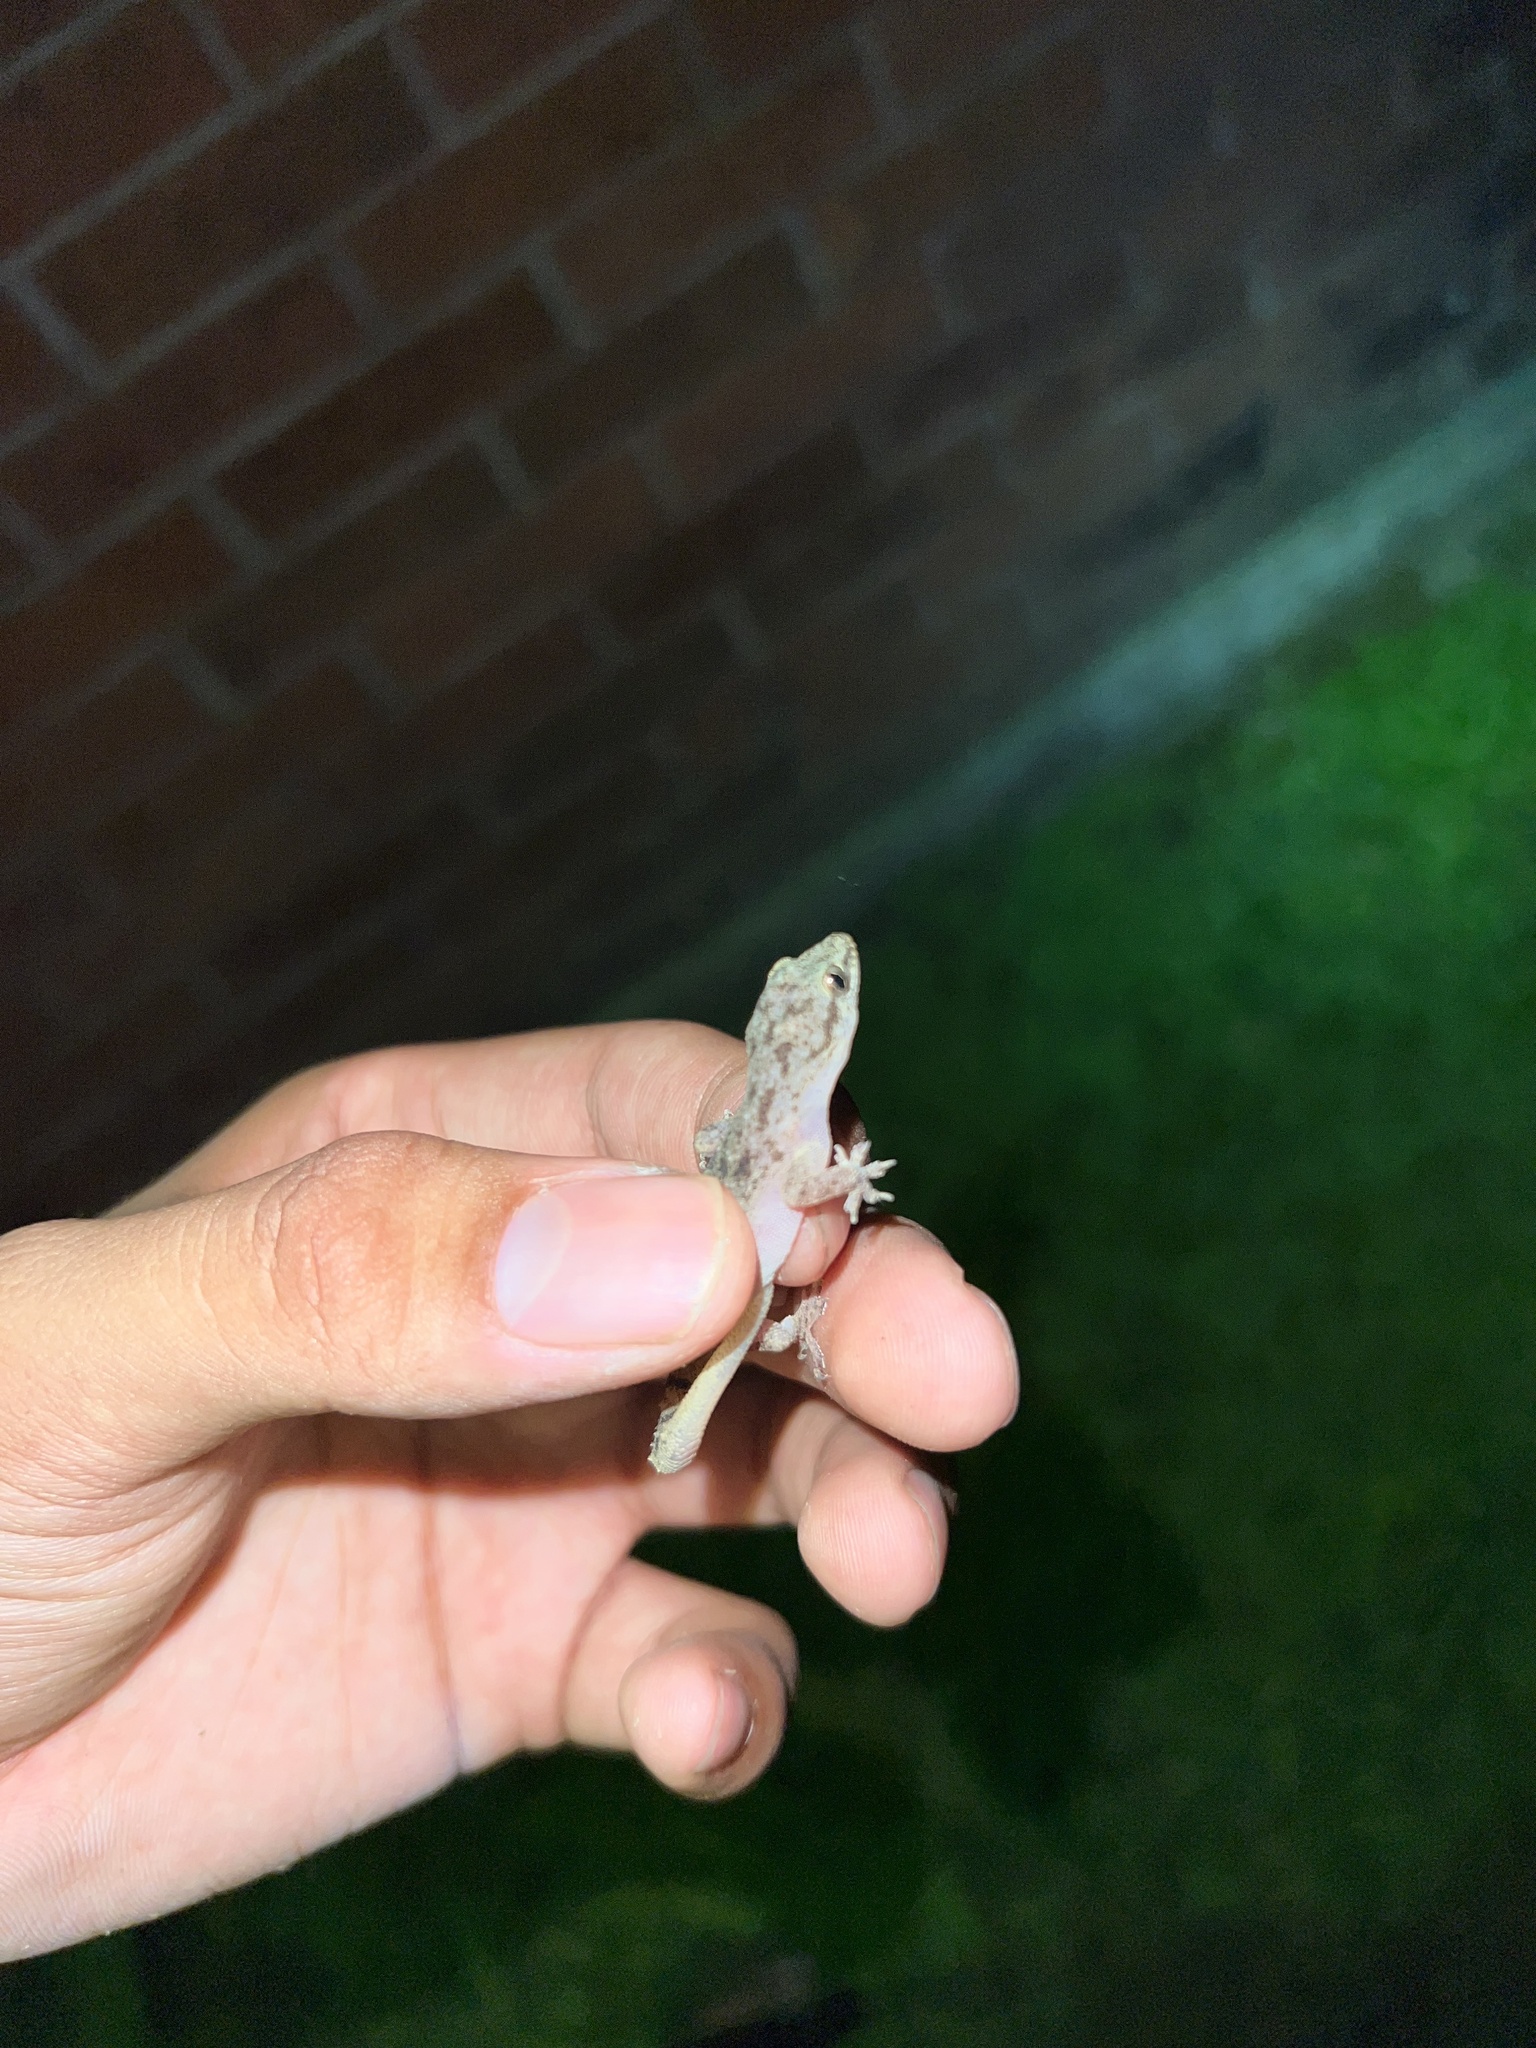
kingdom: Animalia
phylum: Chordata
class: Squamata
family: Gekkonidae
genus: Hemidactylus
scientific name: Hemidactylus parvimaculatus
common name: Spotted house gecko
